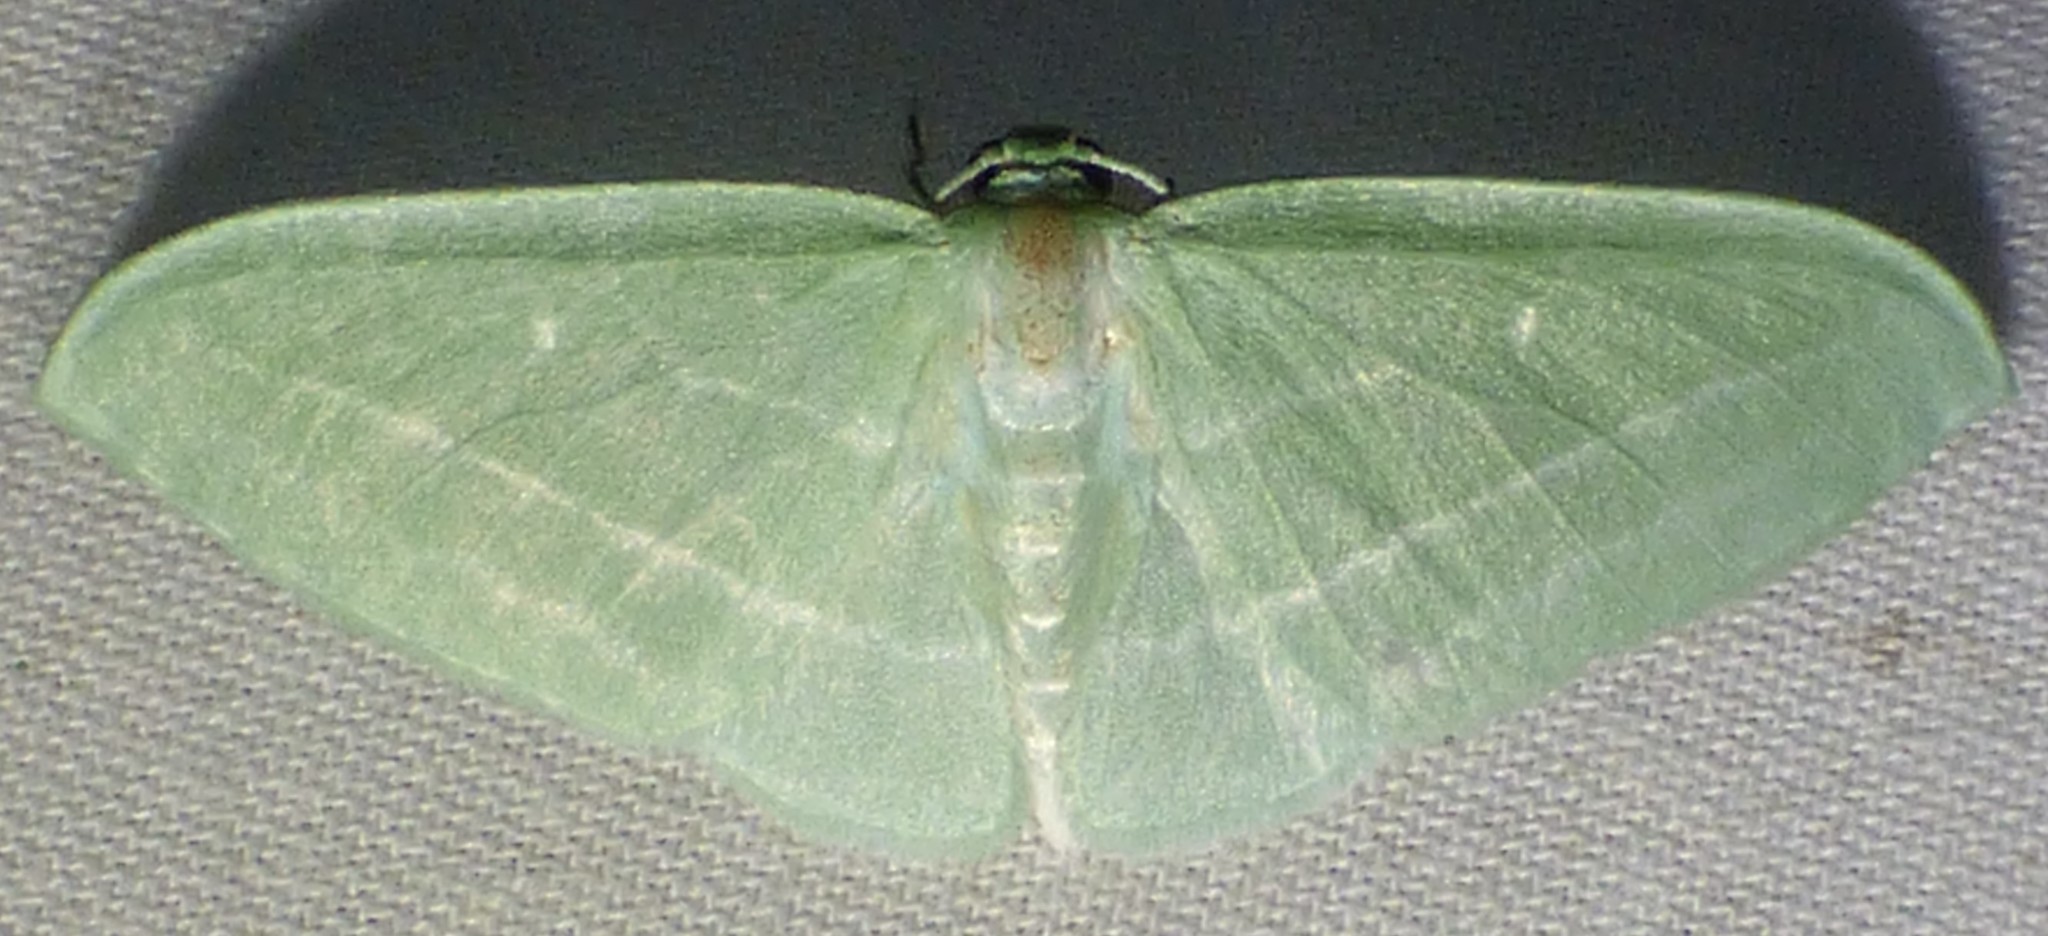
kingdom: Animalia
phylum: Arthropoda
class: Insecta
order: Lepidoptera
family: Geometridae
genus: Dyspteris
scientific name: Dyspteris abortivaria
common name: Bad-wing
